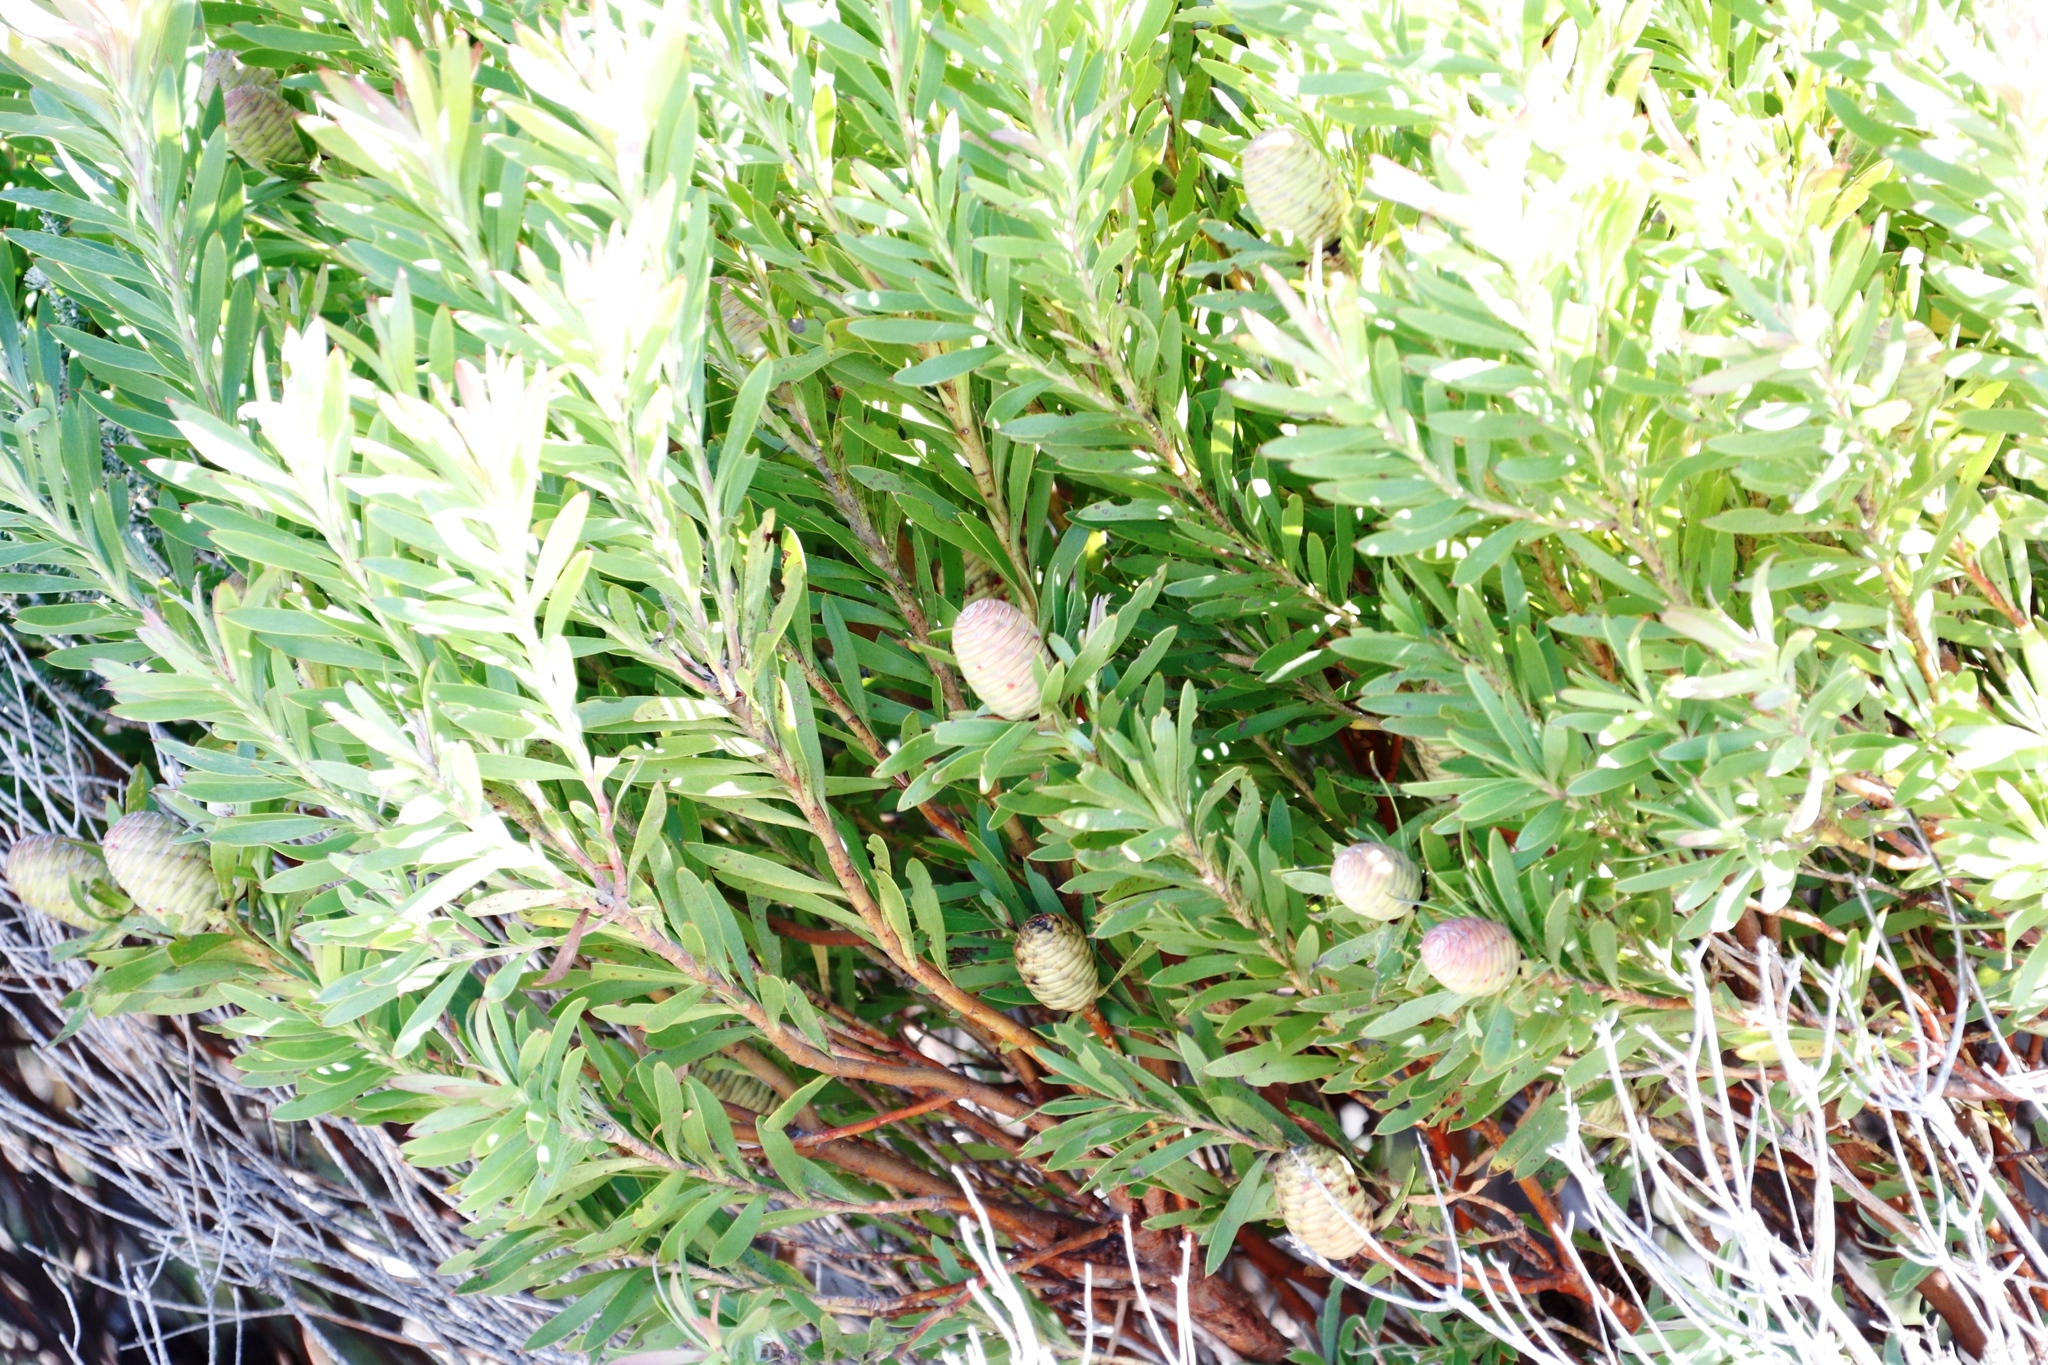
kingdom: Plantae
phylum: Tracheophyta
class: Magnoliopsida
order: Proteales
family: Proteaceae
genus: Leucadendron
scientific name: Leucadendron coniferum
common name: Dune conebush
